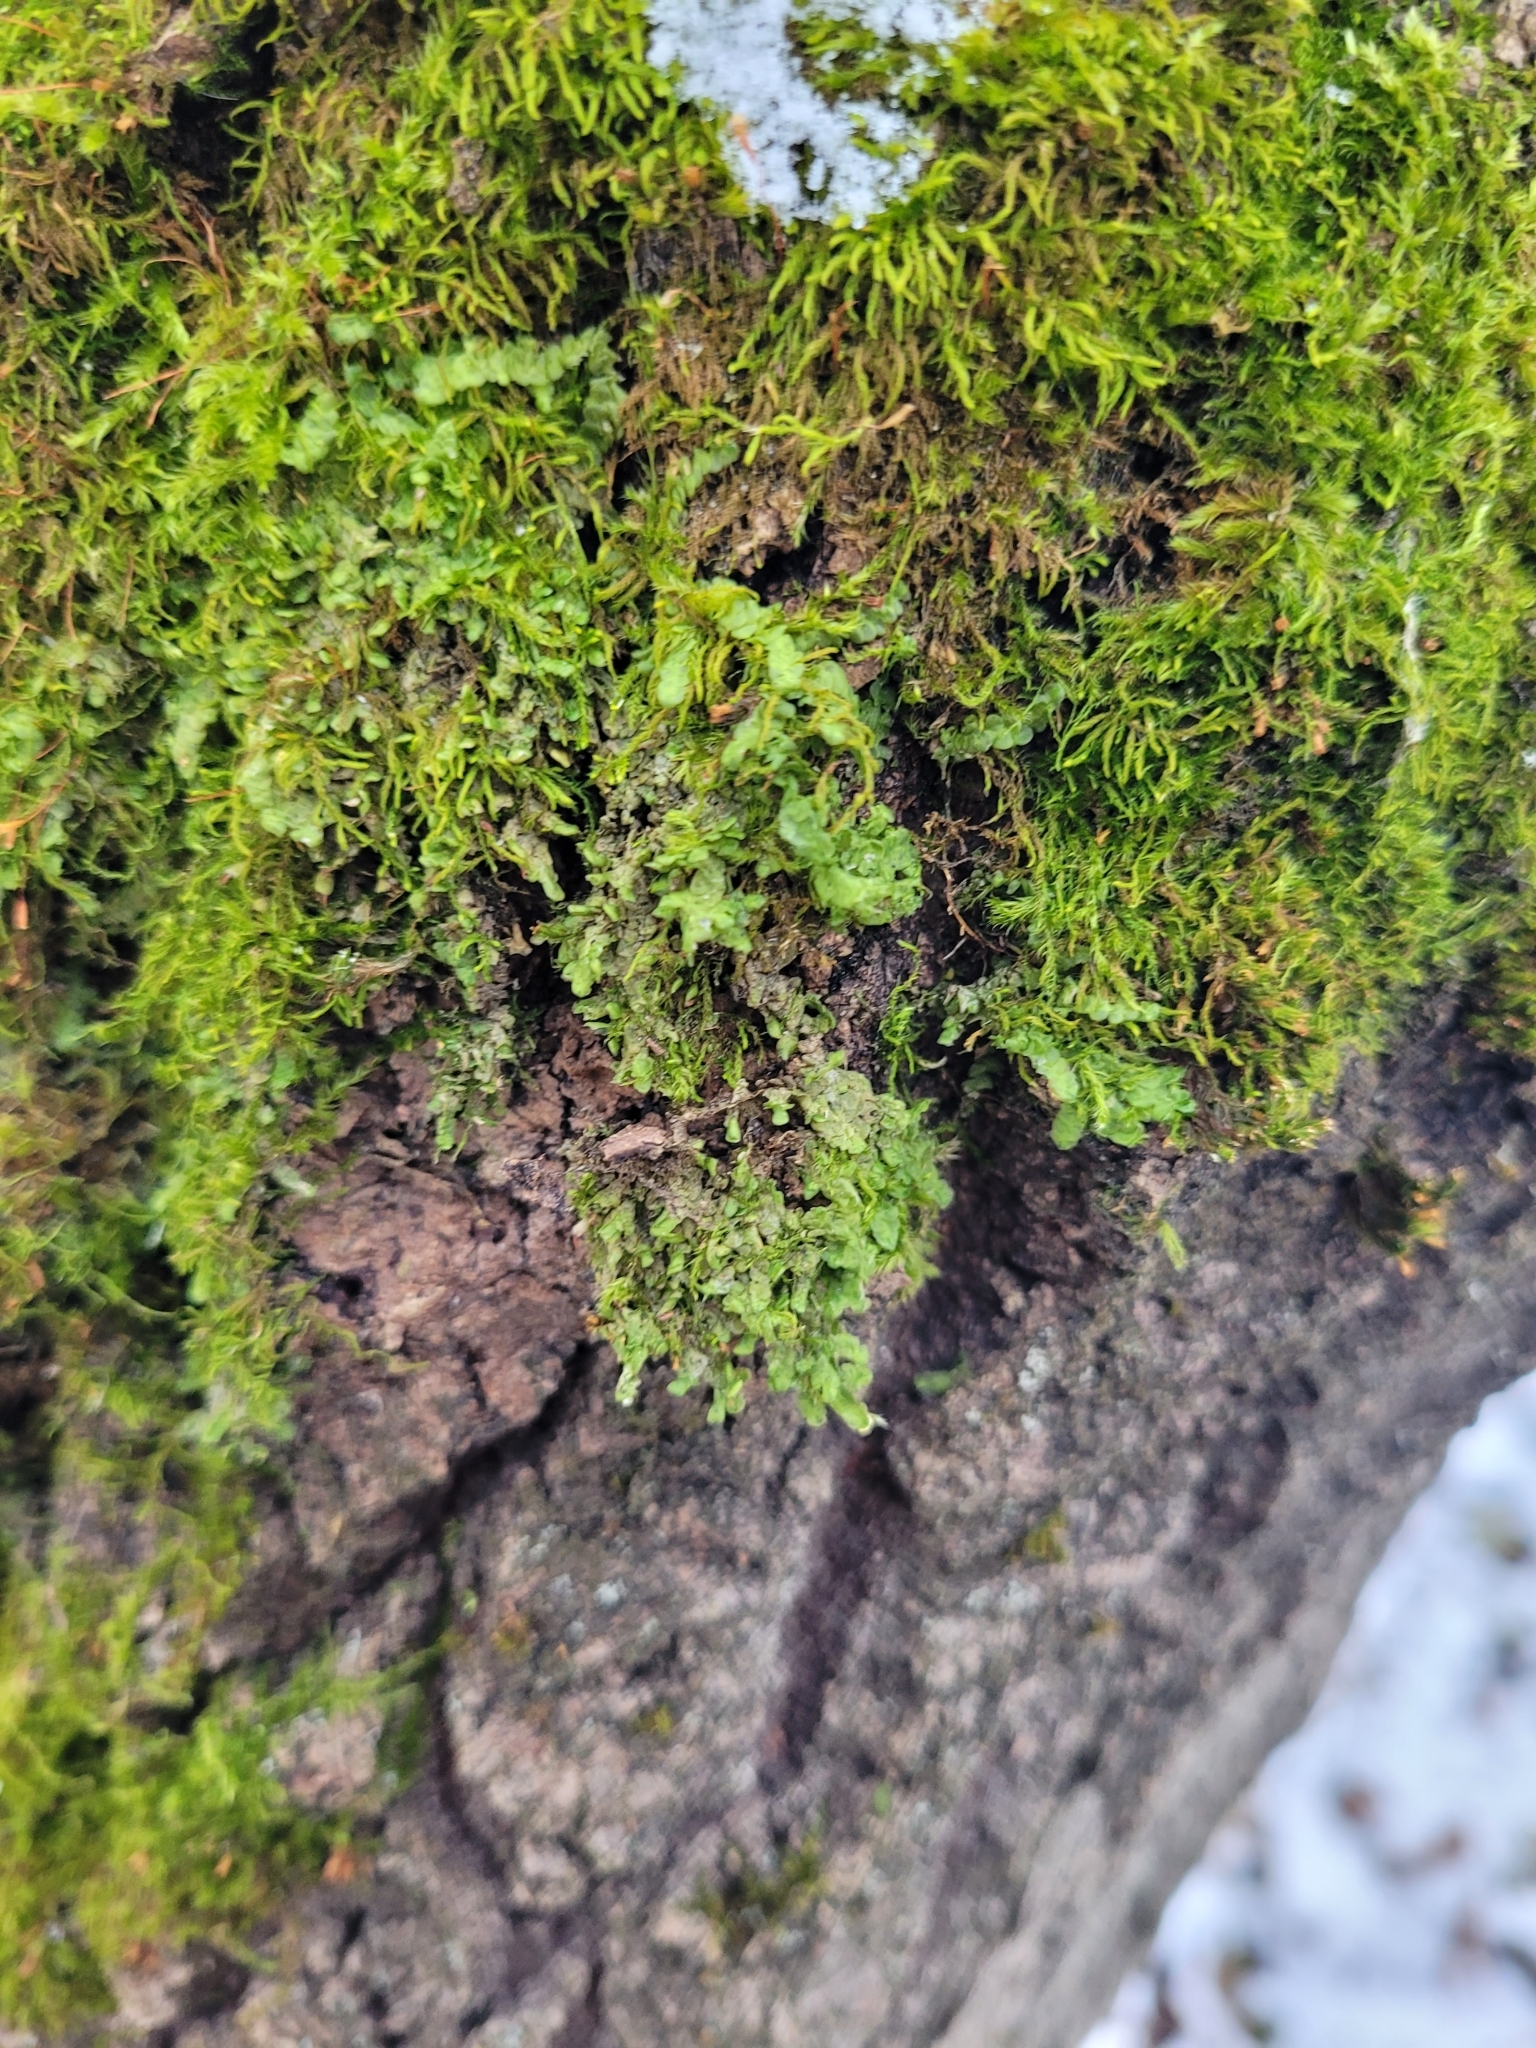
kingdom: Plantae
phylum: Marchantiophyta
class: Jungermanniopsida
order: Porellales
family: Radulaceae
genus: Radula
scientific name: Radula complanata
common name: Flat-leaved scalewort
